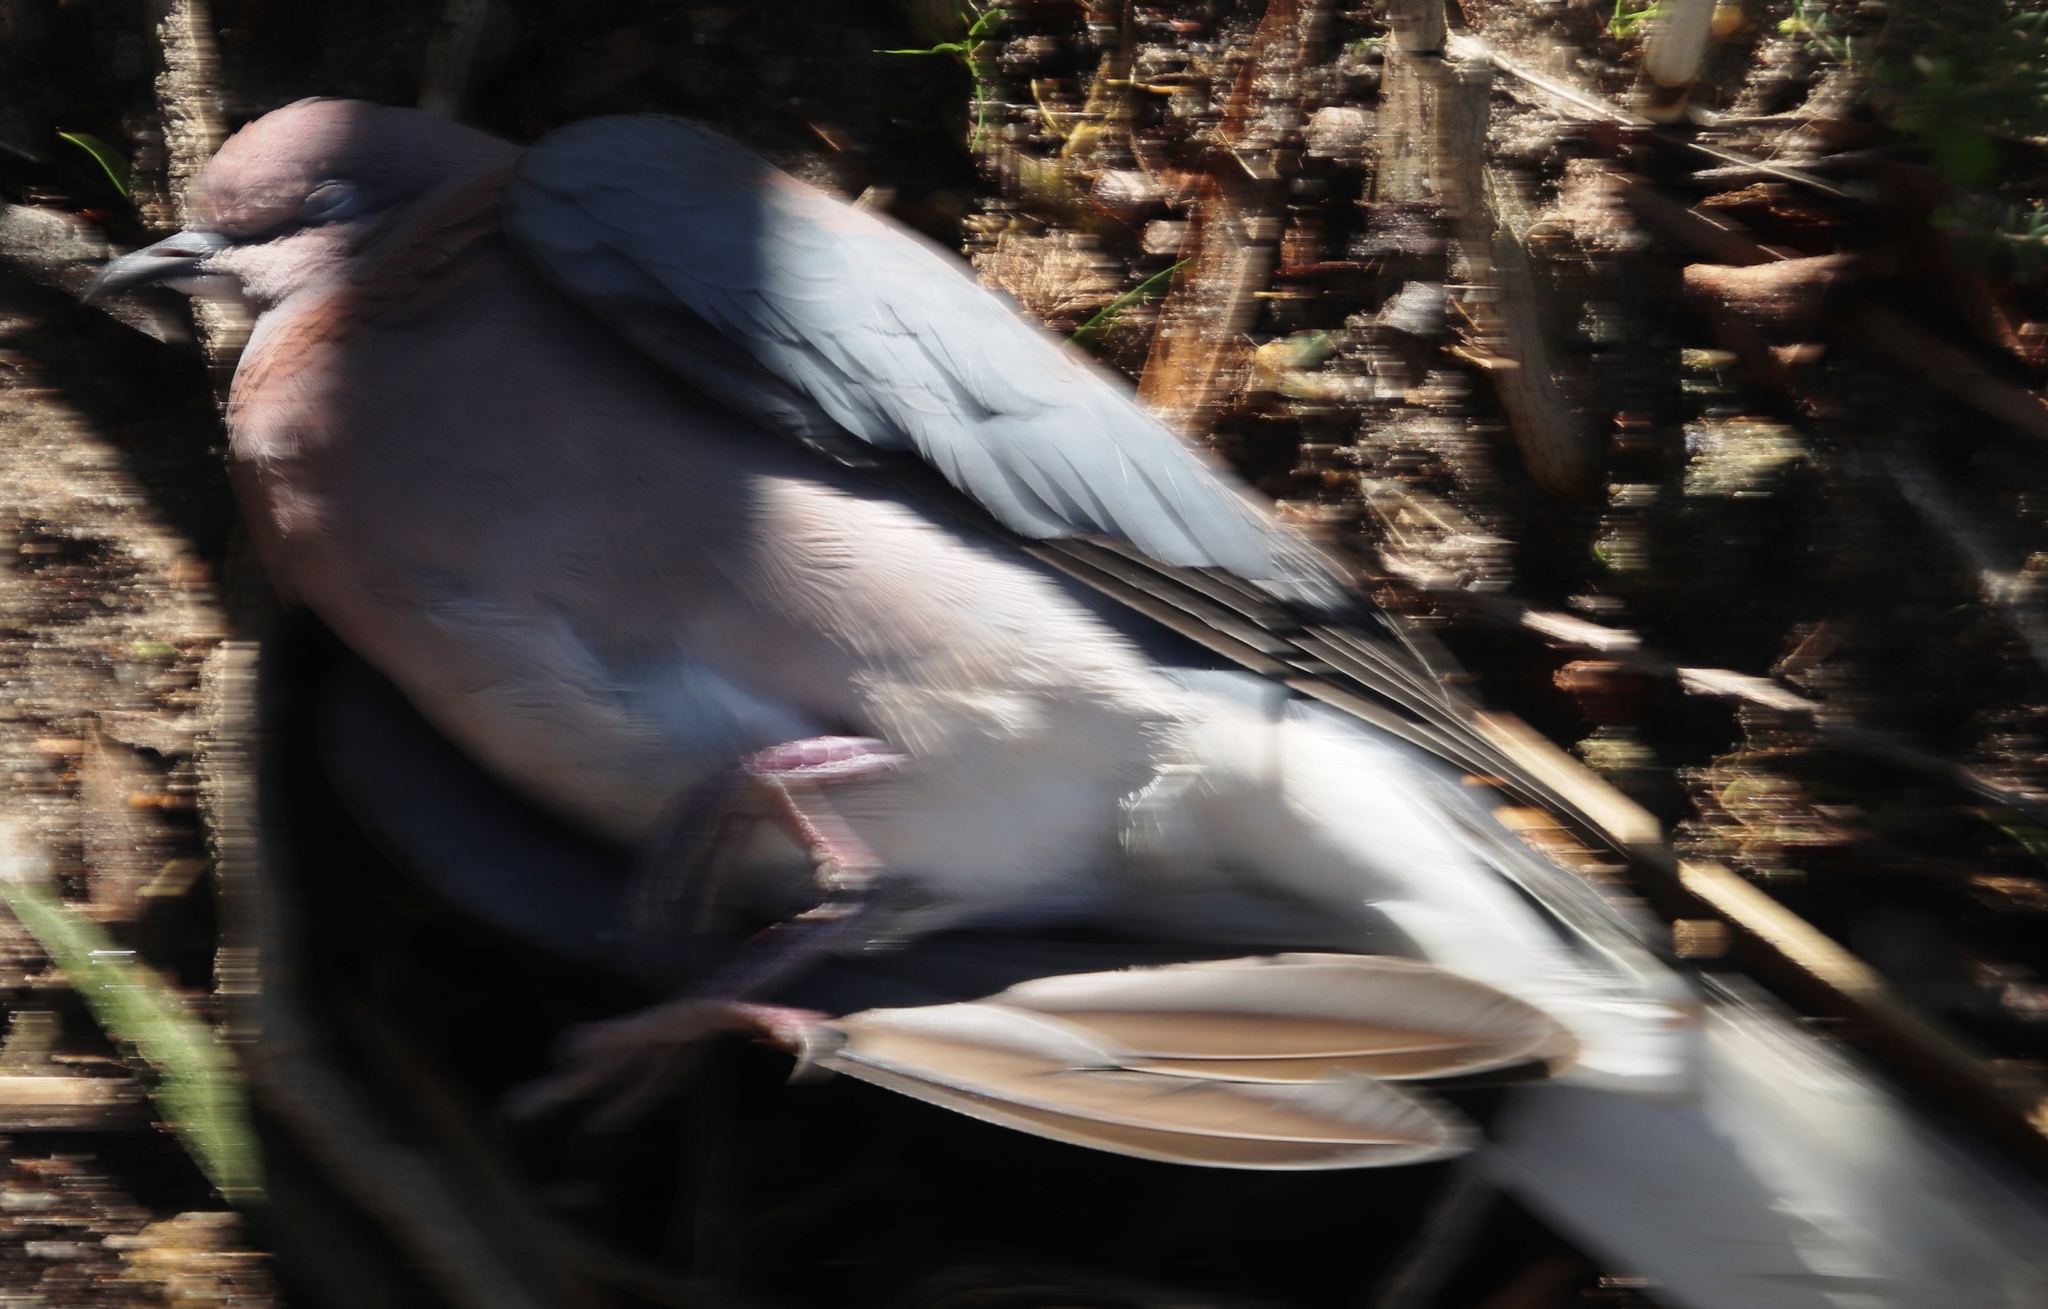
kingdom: Animalia
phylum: Chordata
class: Aves
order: Columbiformes
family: Columbidae
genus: Spilopelia
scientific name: Spilopelia senegalensis
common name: Laughing dove
